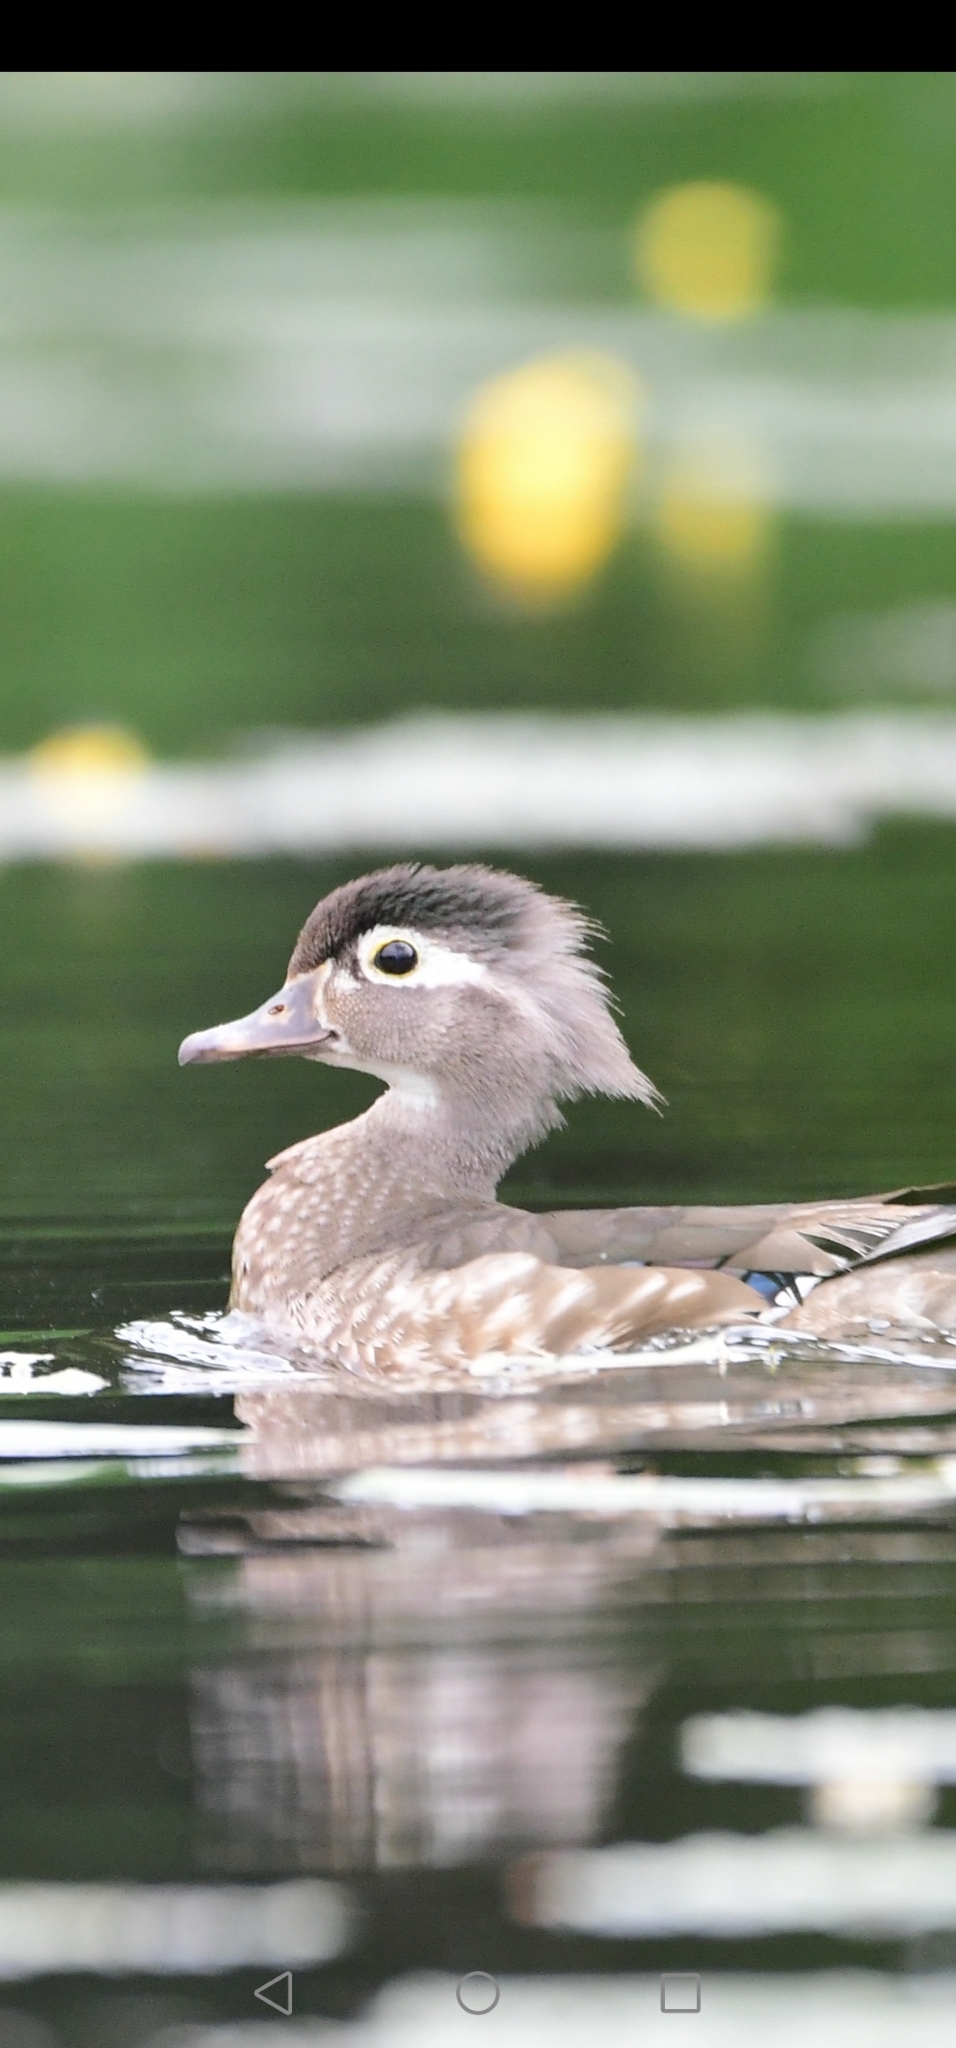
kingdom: Animalia
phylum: Chordata
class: Aves
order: Anseriformes
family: Anatidae
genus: Aix
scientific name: Aix sponsa
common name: Wood duck
